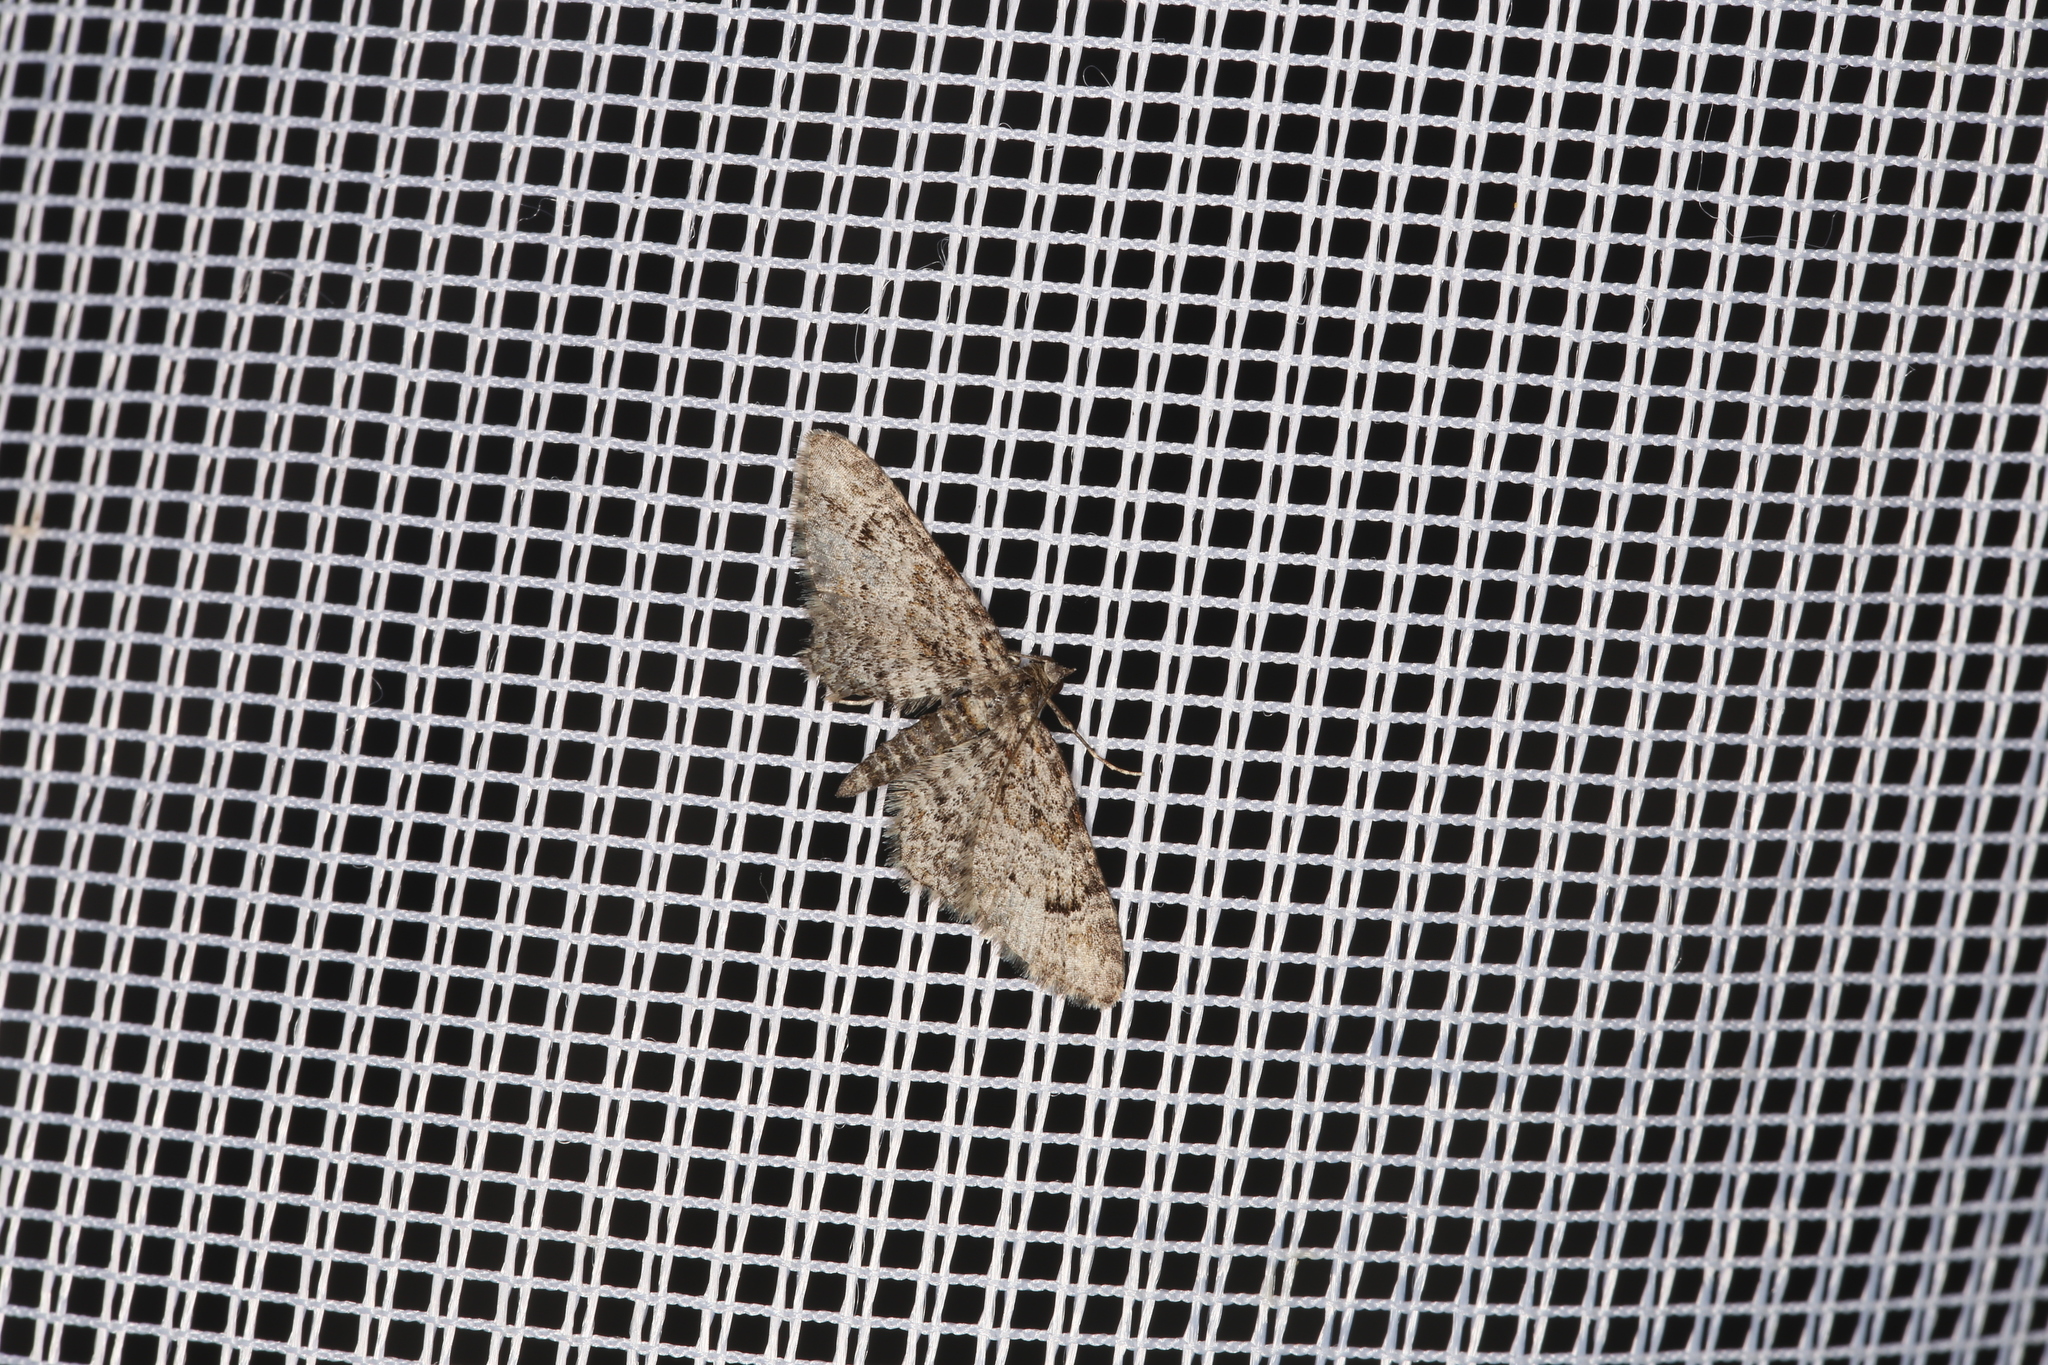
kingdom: Animalia
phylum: Arthropoda
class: Insecta
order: Lepidoptera
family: Geometridae
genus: Gymnoscelis
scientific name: Gymnoscelis rufifasciata
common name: Double-striped pug
